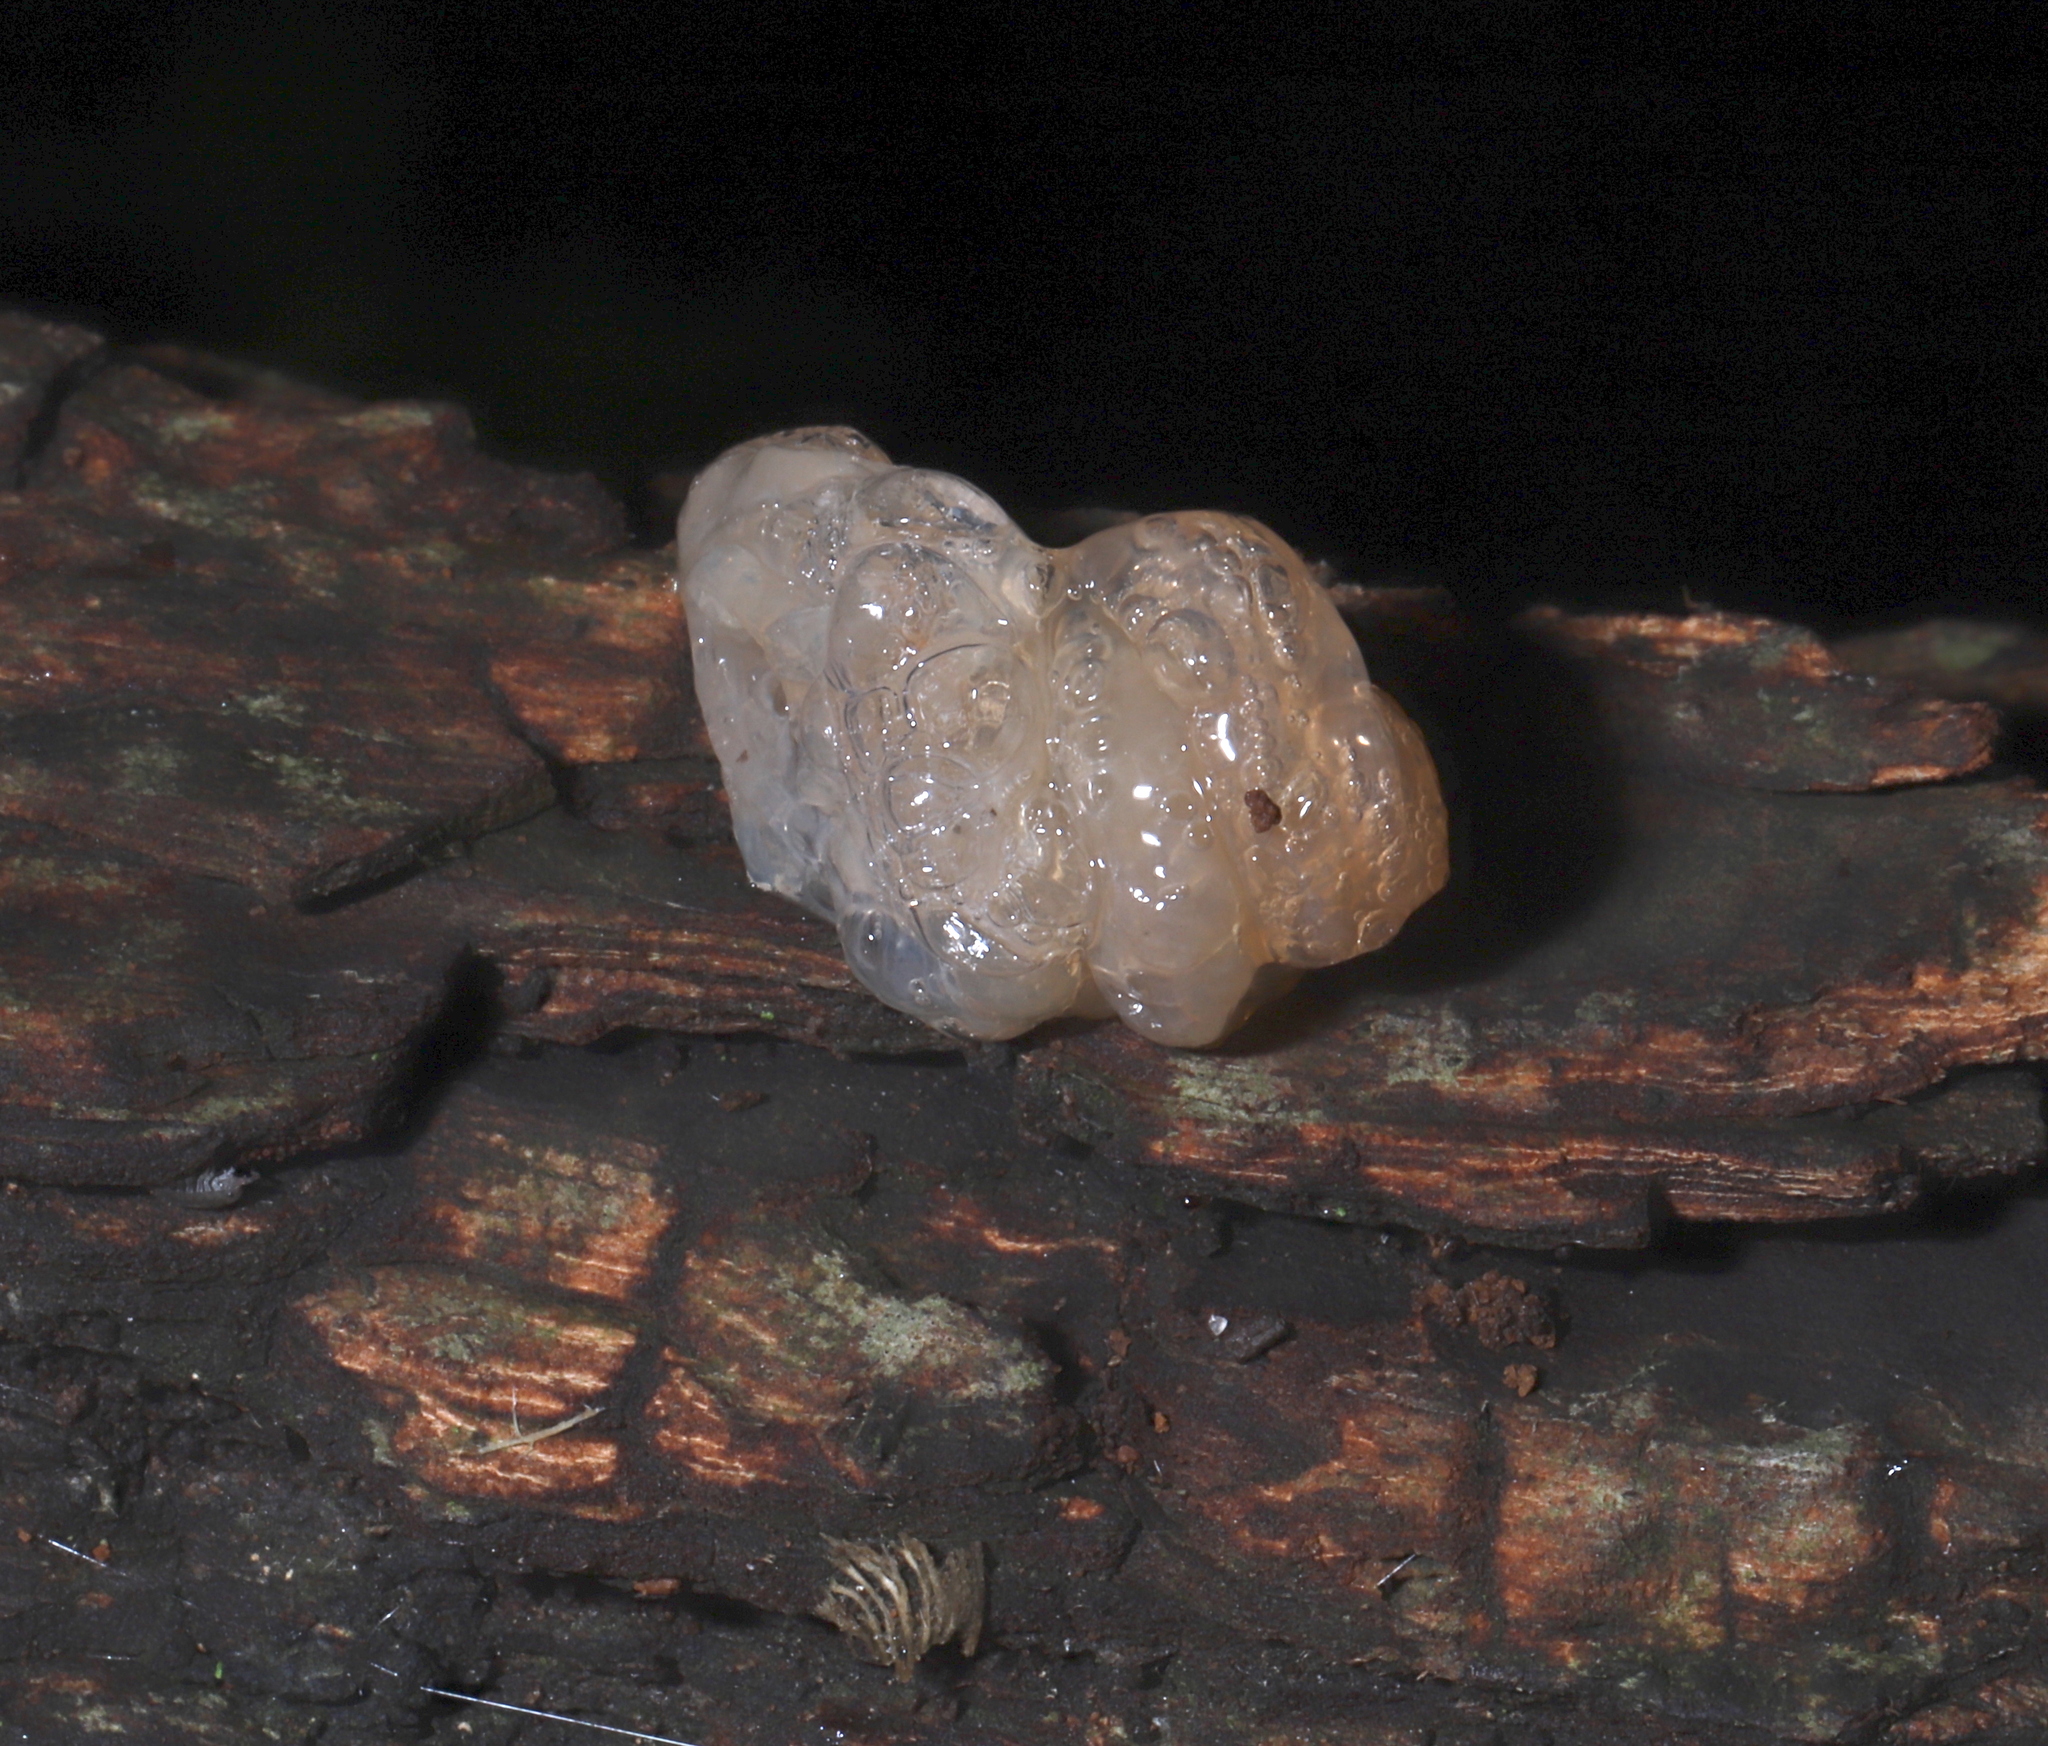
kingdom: Fungi
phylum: Basidiomycota
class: Agaricomycetes
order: Auriculariales
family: Hyaloriaceae
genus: Myxarium
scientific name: Myxarium nucleatum
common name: Crystal brain fungus
